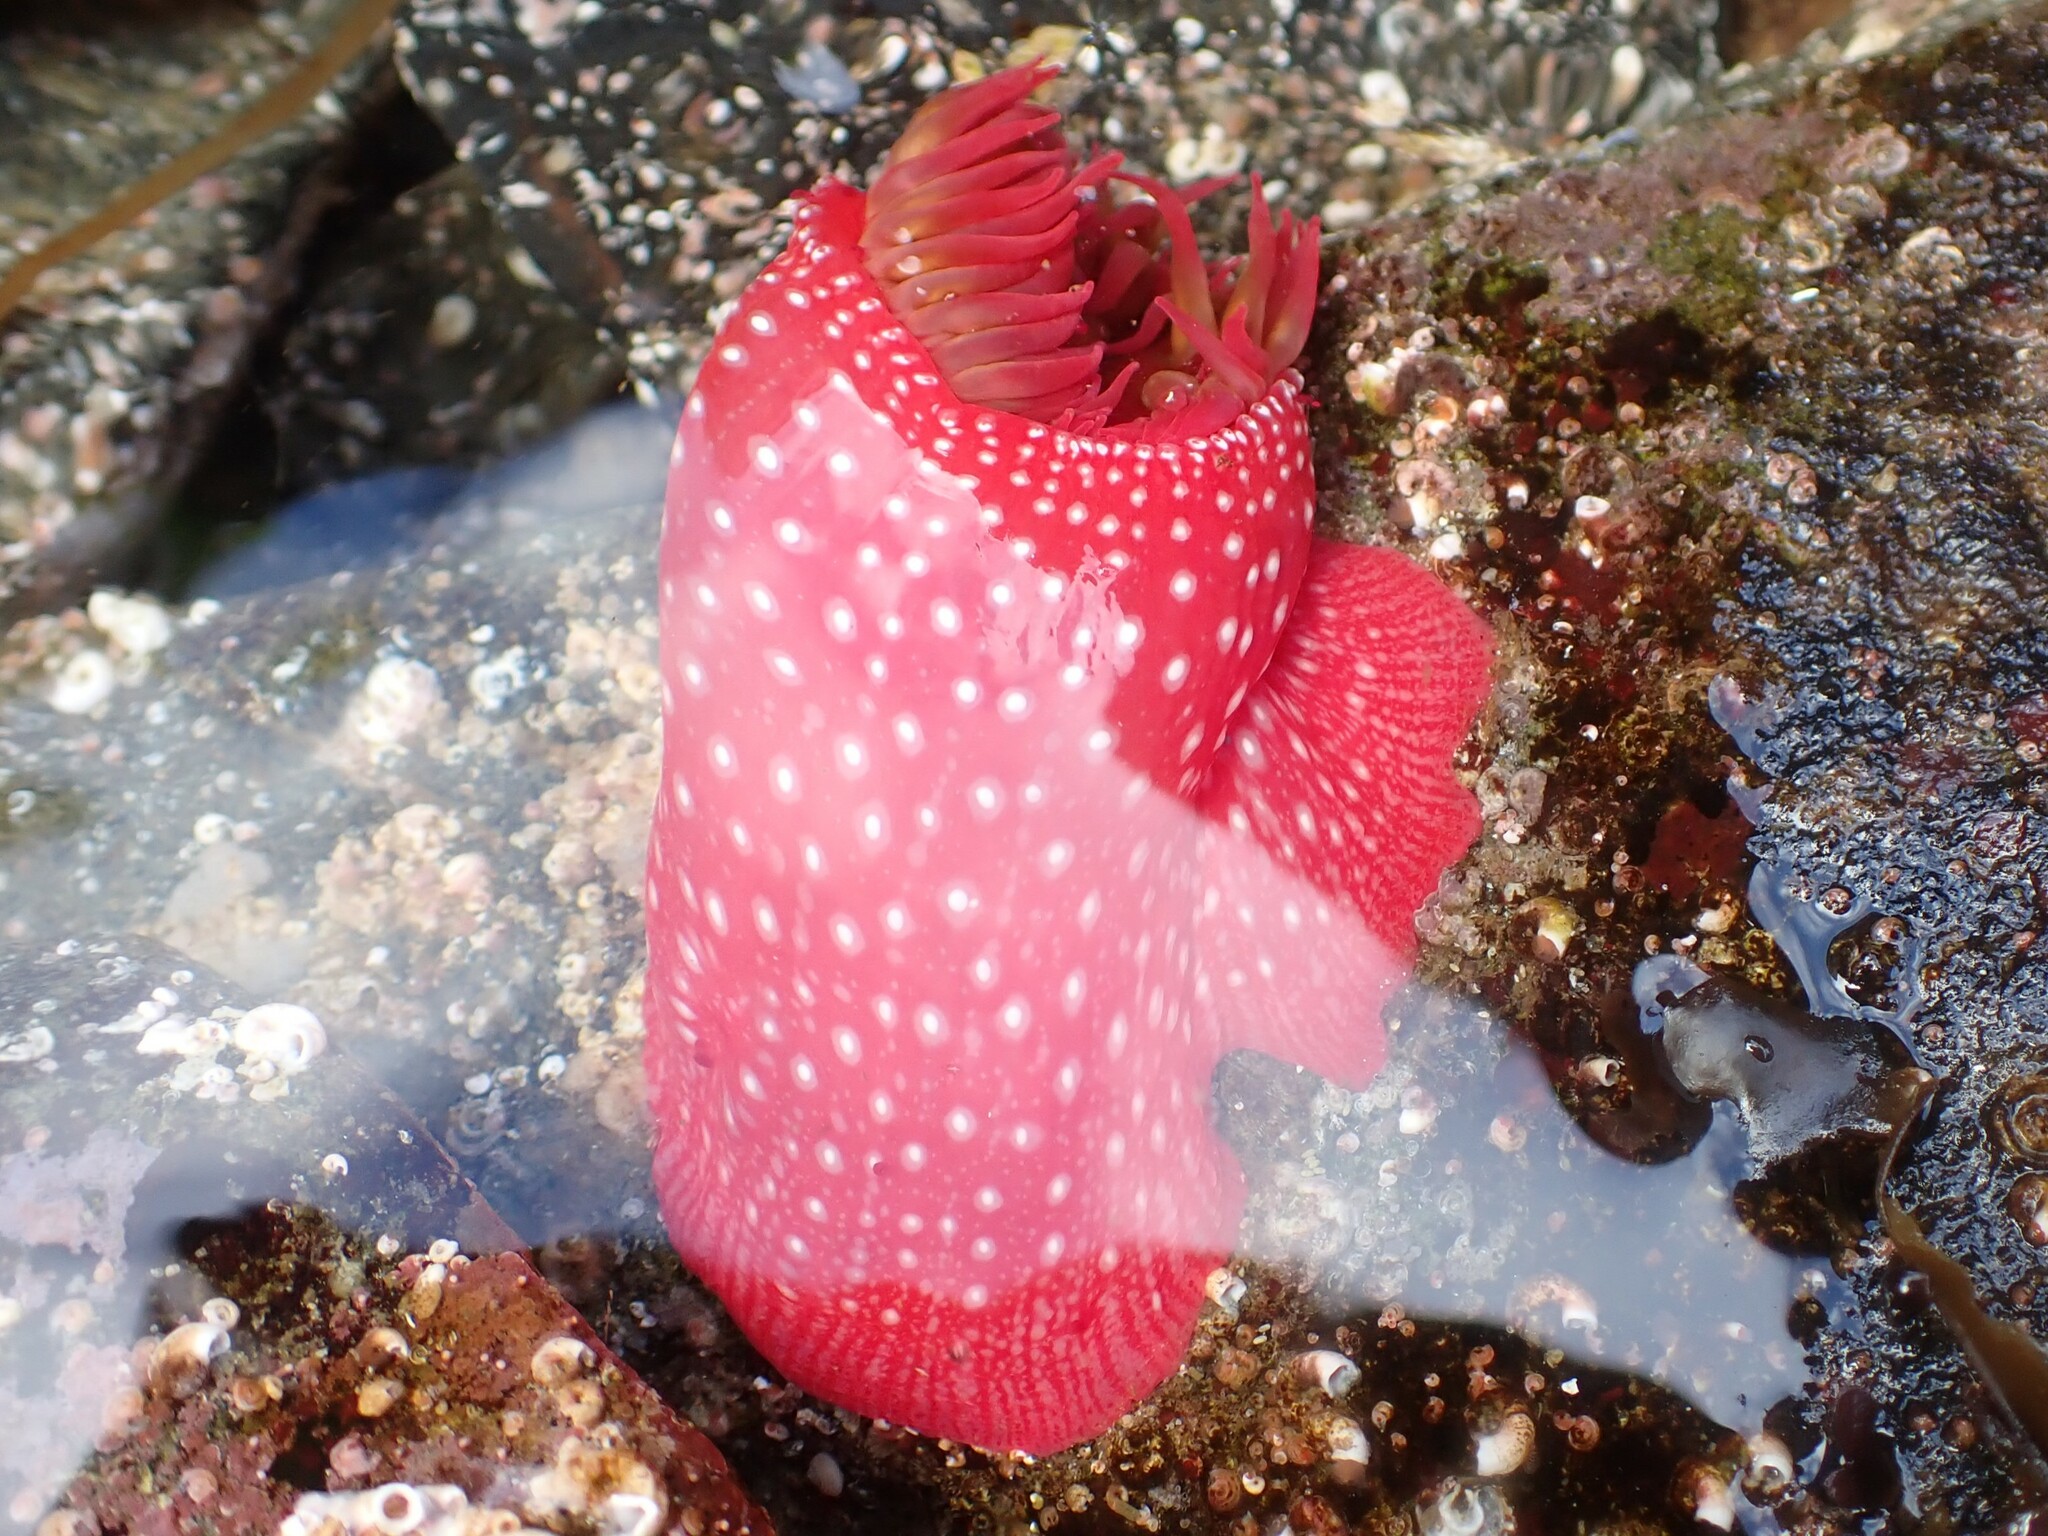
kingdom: Animalia
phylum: Cnidaria
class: Anthozoa
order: Actiniaria
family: Actiniidae
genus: Cribrinopsis
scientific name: Cribrinopsis albopunctata
